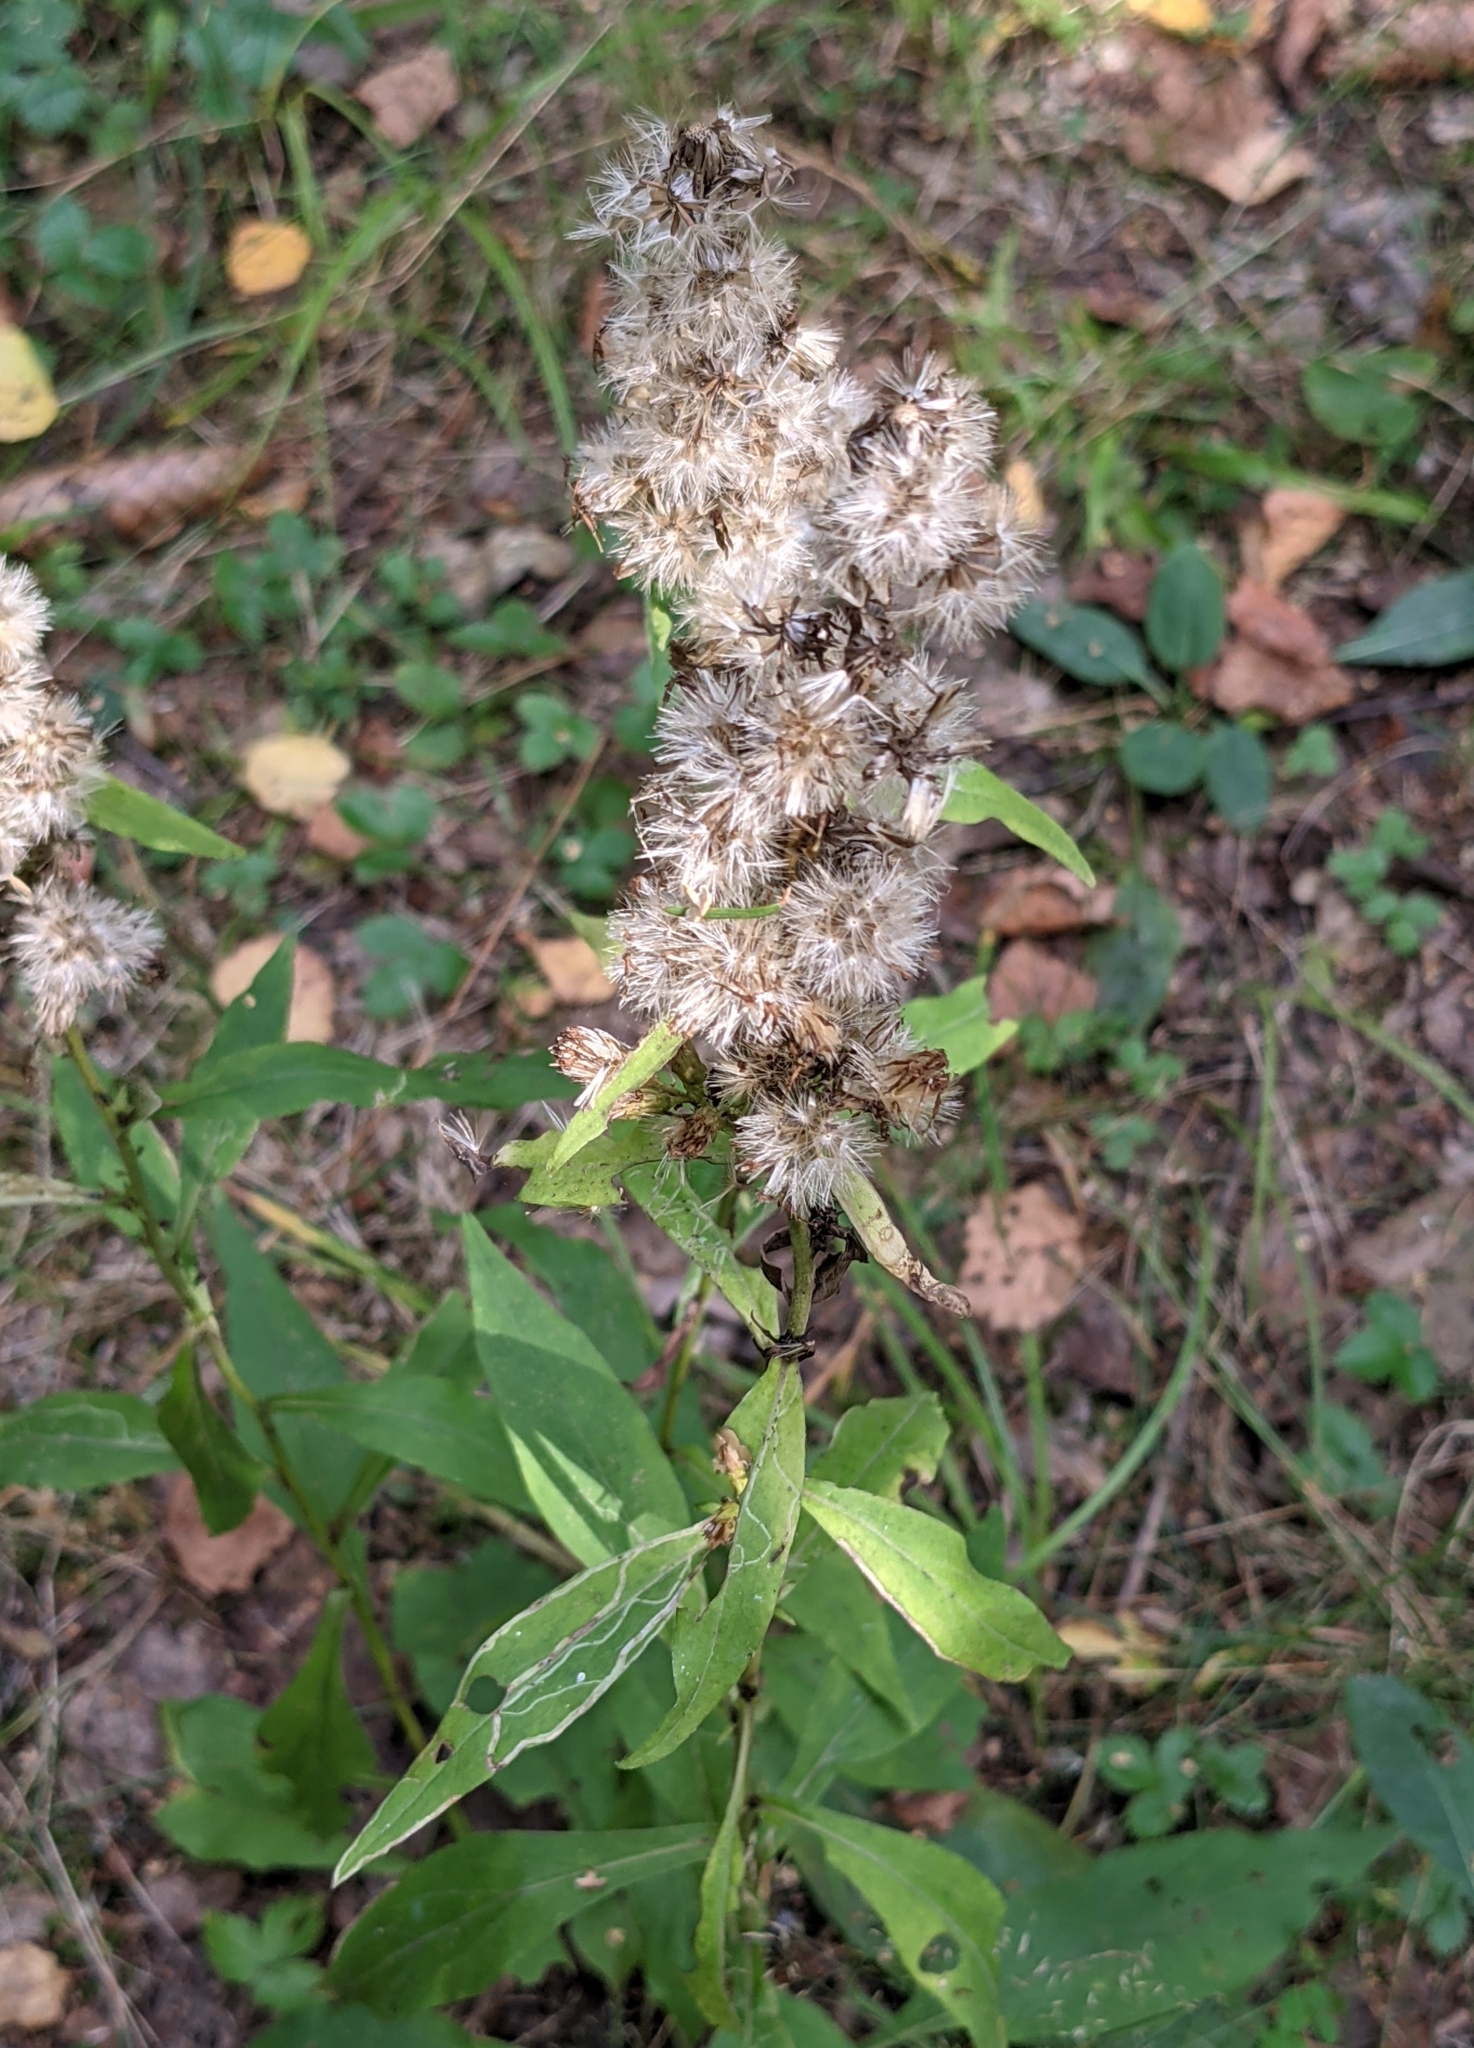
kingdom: Plantae
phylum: Tracheophyta
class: Magnoliopsida
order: Asterales
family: Asteraceae
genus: Solidago
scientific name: Solidago virgaurea
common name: Goldenrod
